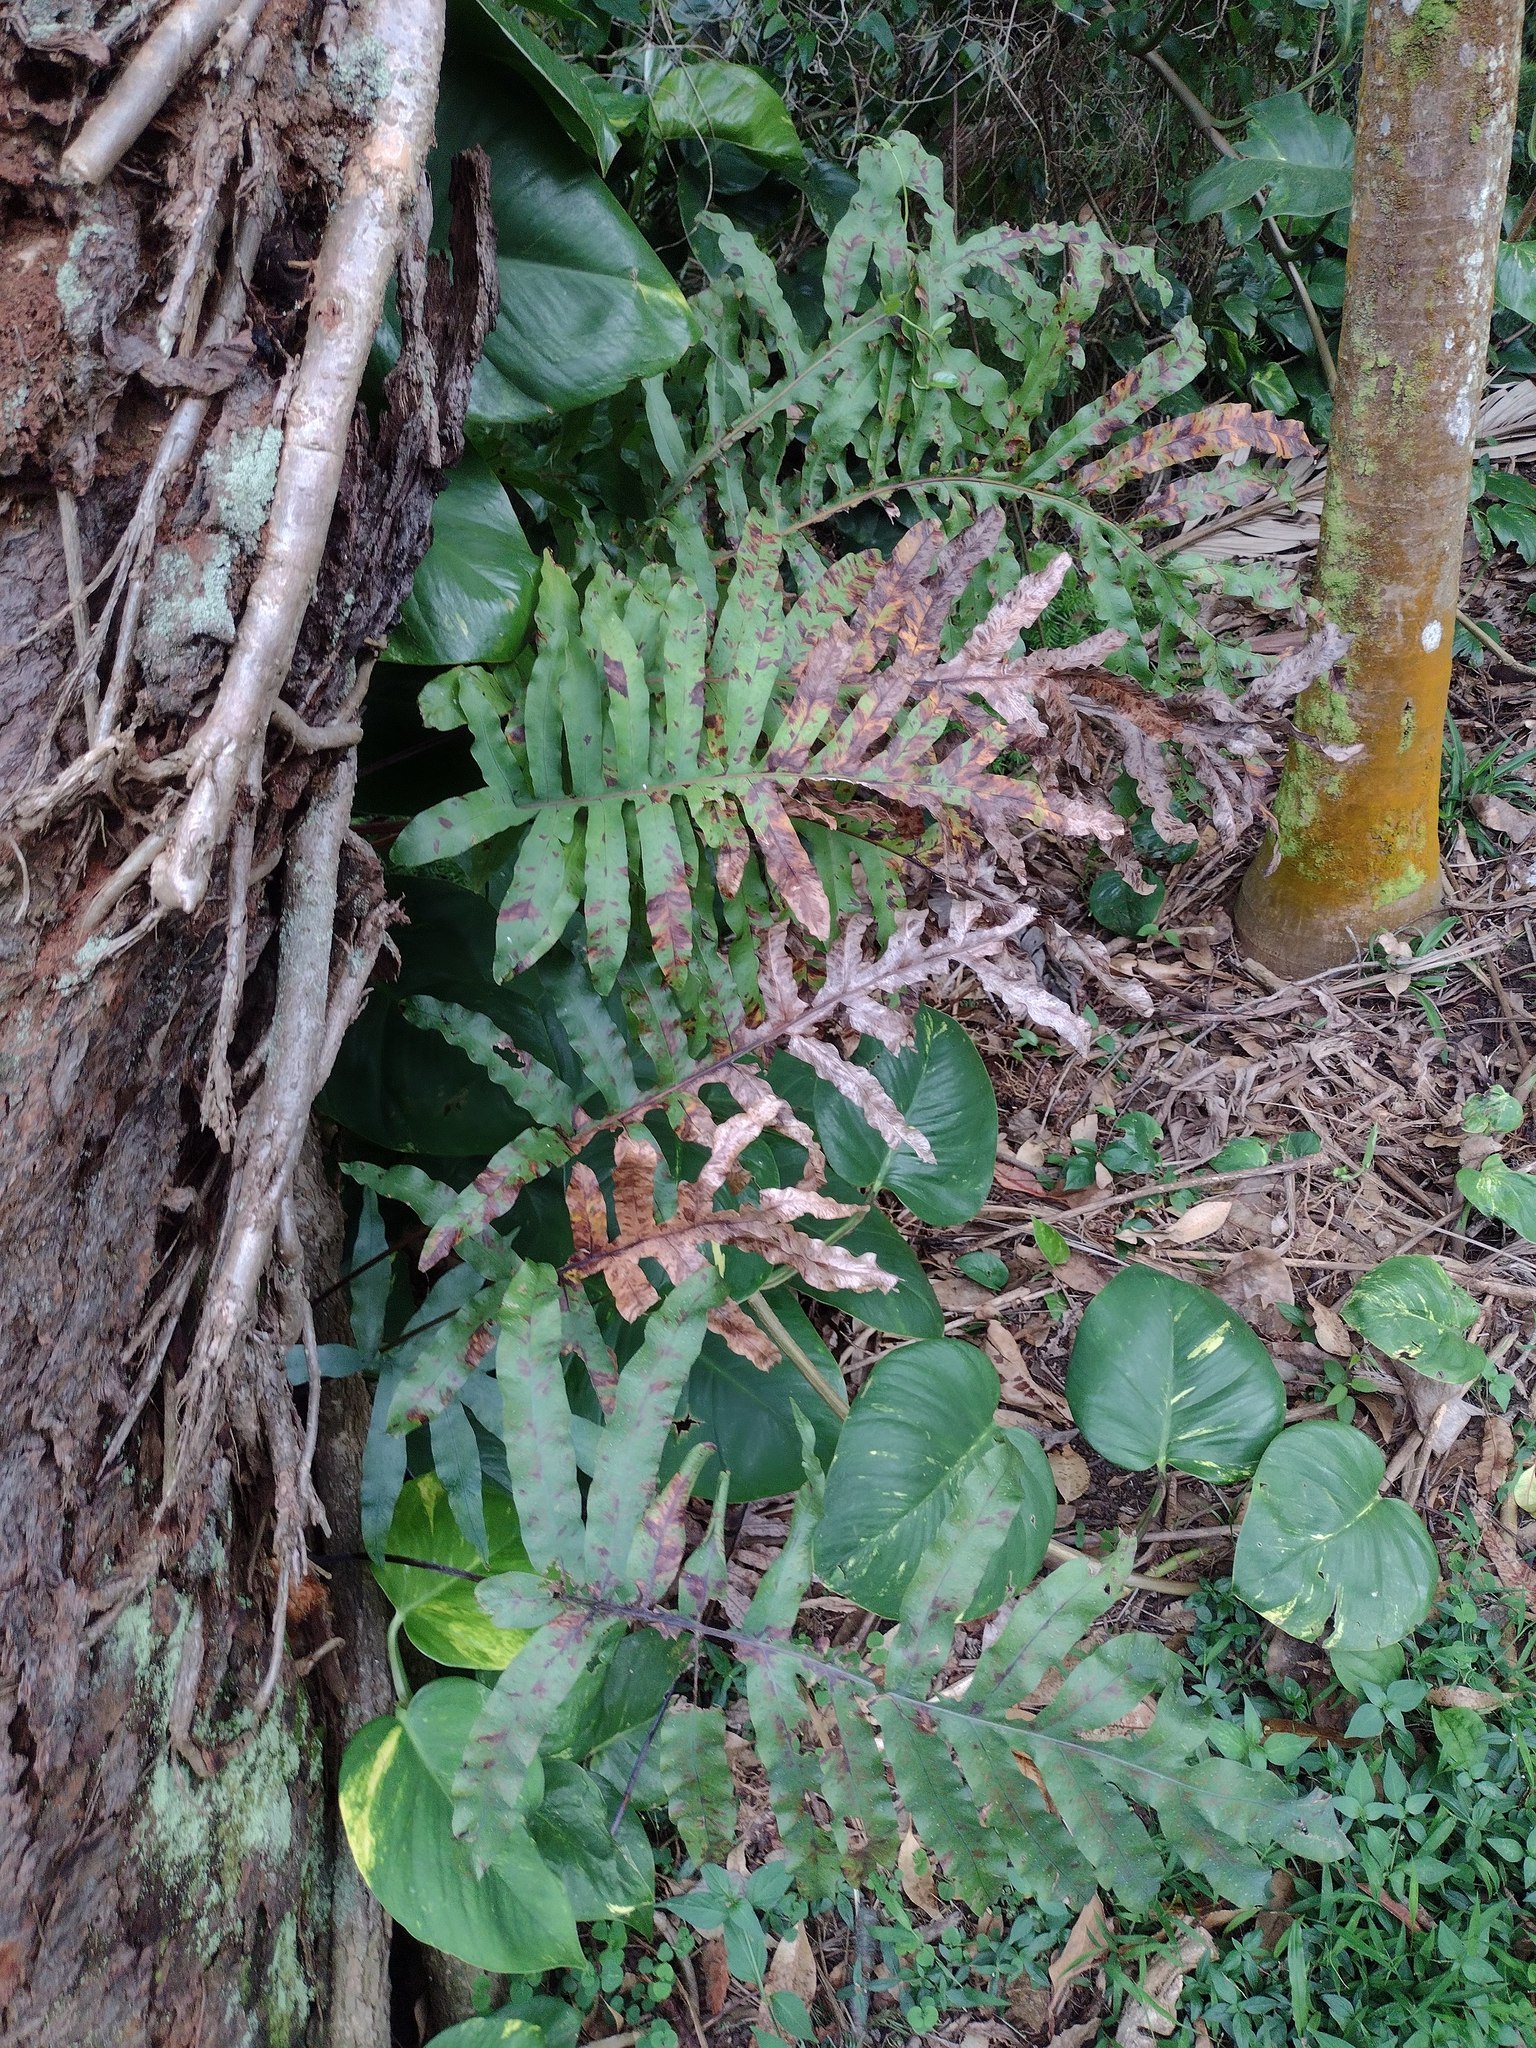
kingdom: Plantae
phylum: Tracheophyta
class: Polypodiopsida
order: Polypodiales
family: Polypodiaceae
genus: Phlebodium
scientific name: Phlebodium aureum
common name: Gold-foot fern
